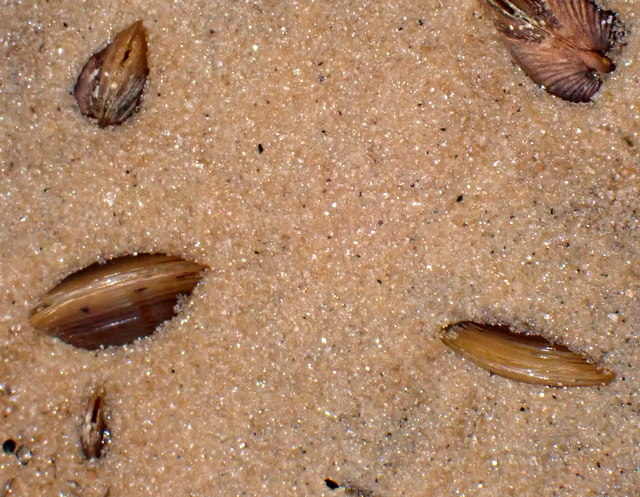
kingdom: Animalia
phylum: Mollusca
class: Bivalvia
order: Venerida
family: Cyrenidae
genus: Corbicula
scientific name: Corbicula fluminea
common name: Asian clam
